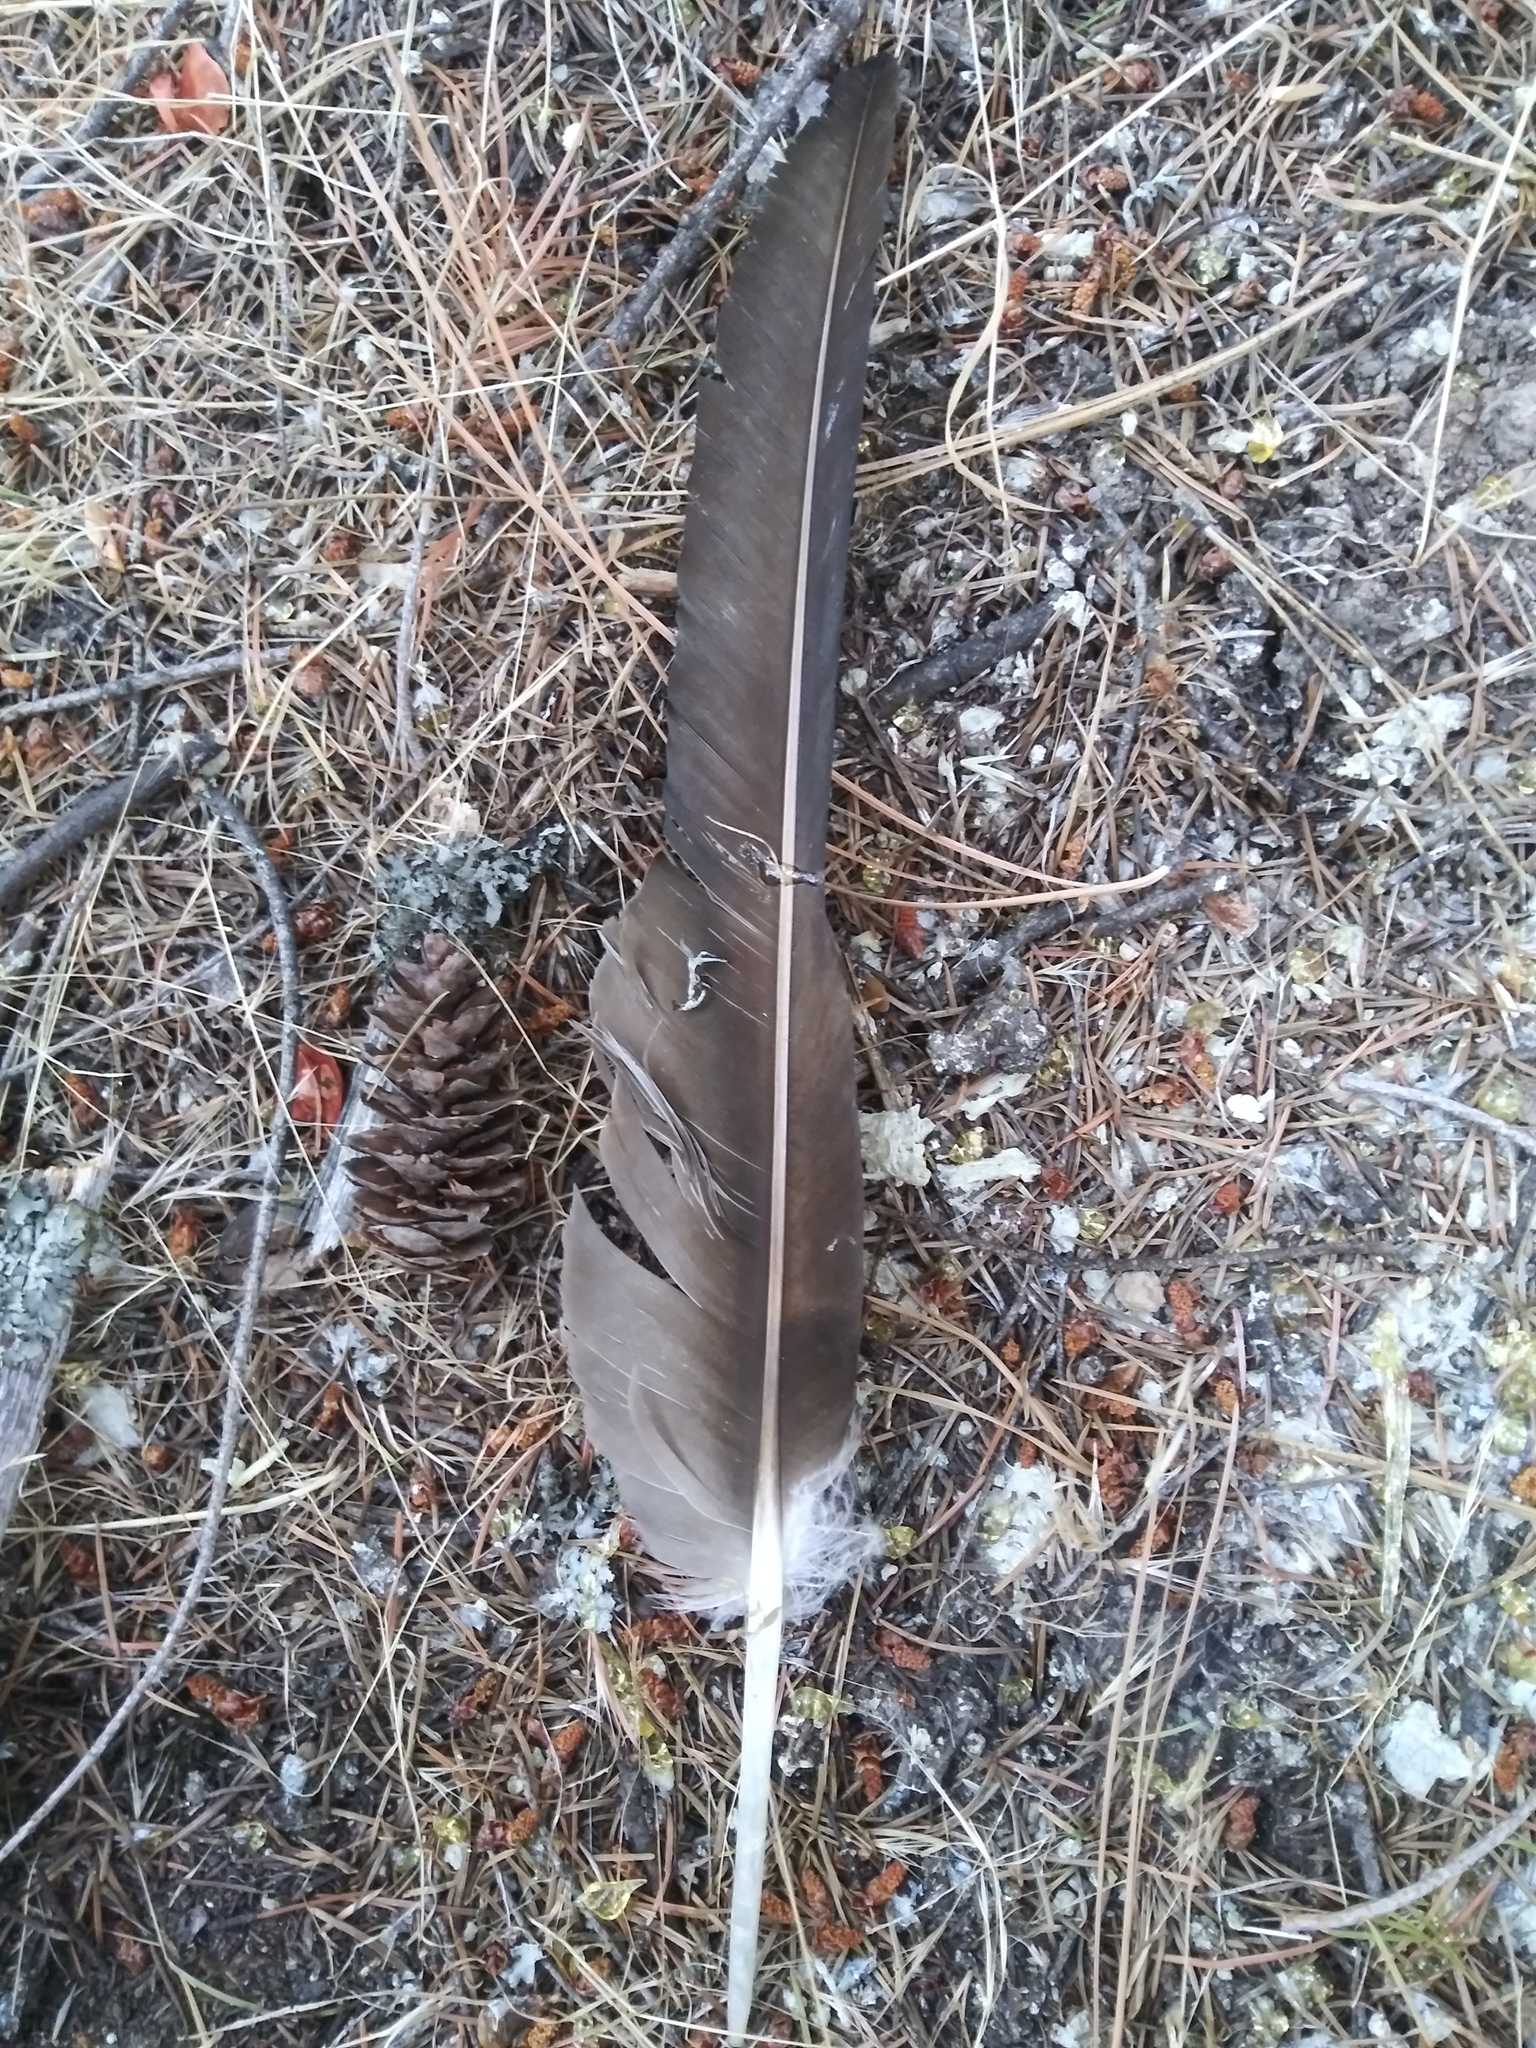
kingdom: Animalia
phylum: Chordata
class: Aves
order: Accipitriformes
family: Cathartidae
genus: Cathartes
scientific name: Cathartes aura
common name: Turkey vulture
